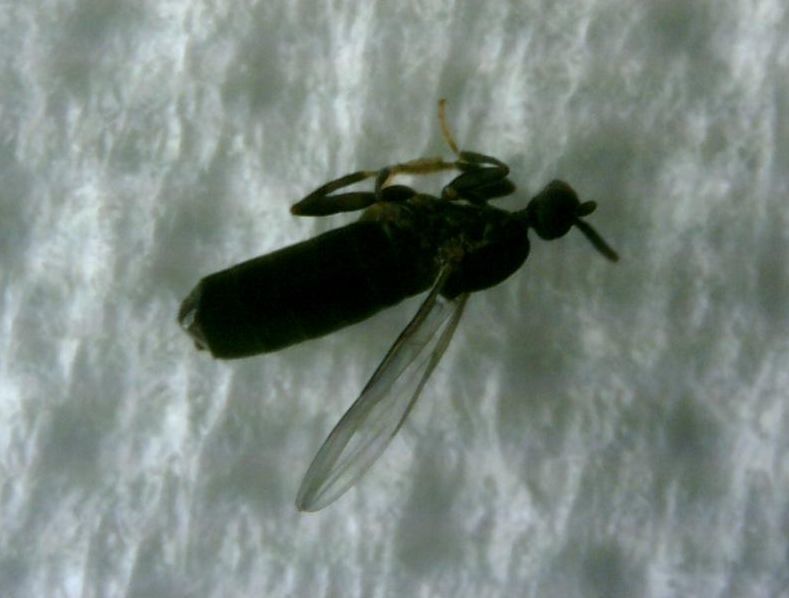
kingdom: Animalia
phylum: Arthropoda
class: Insecta
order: Diptera
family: Scatopsidae
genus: Holoplagia
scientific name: Holoplagia guamensis
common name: Fly
